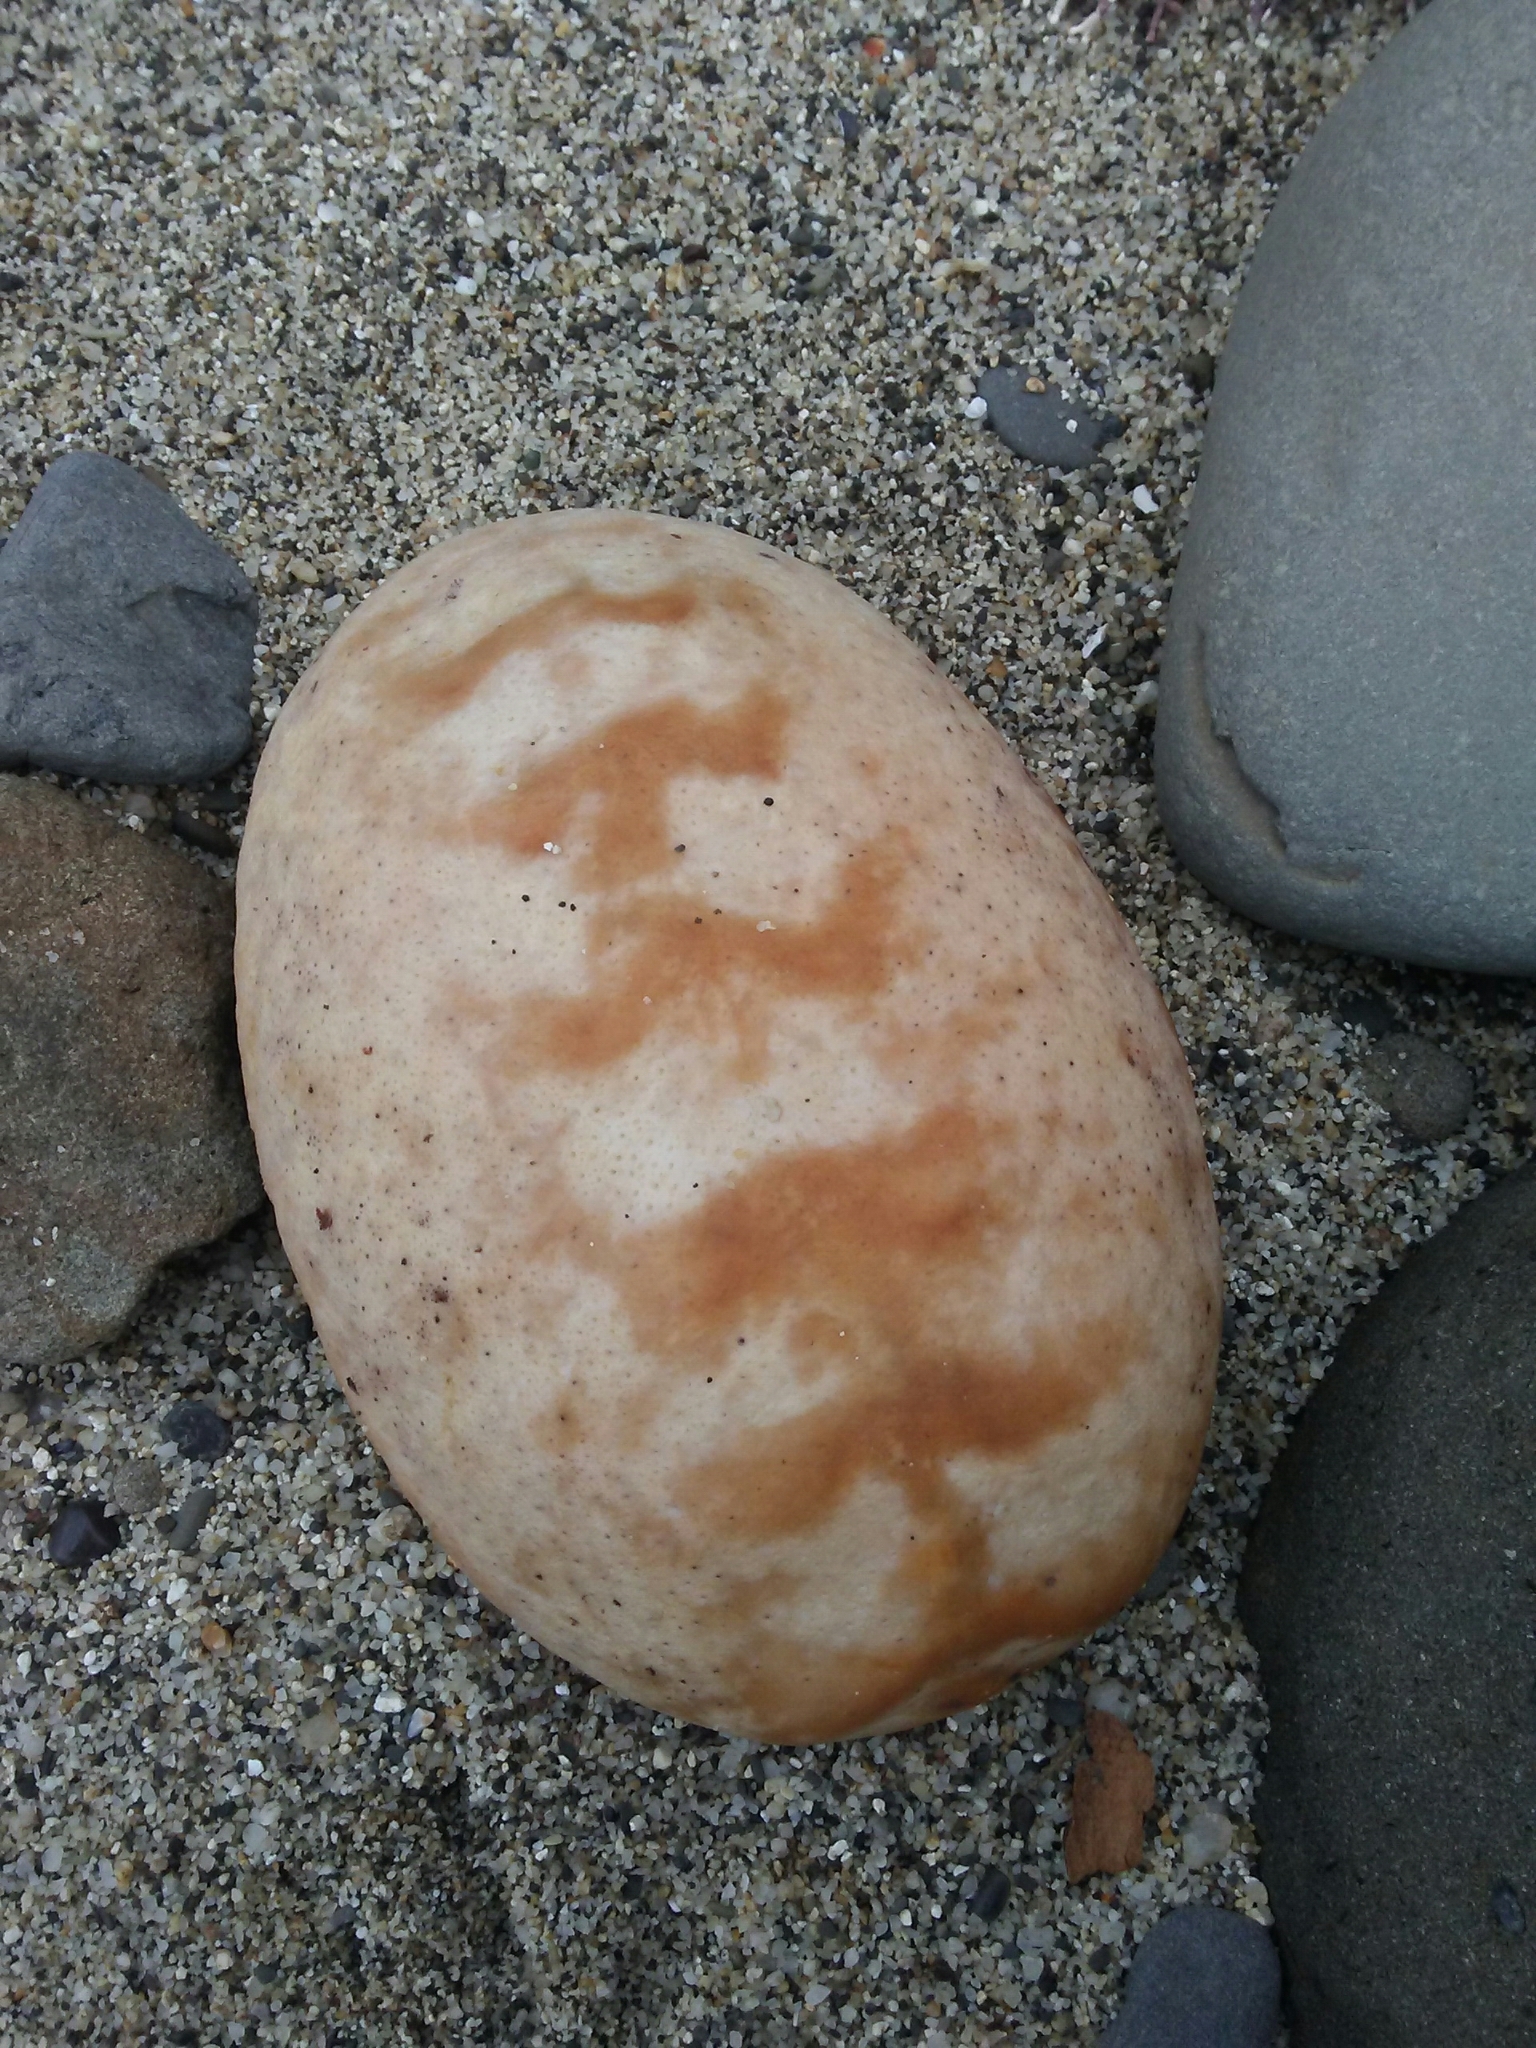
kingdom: Animalia
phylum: Mollusca
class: Polyplacophora
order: Chitonida
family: Acanthochitonidae
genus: Cryptochiton
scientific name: Cryptochiton stelleri
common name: Giant pacific chiton
